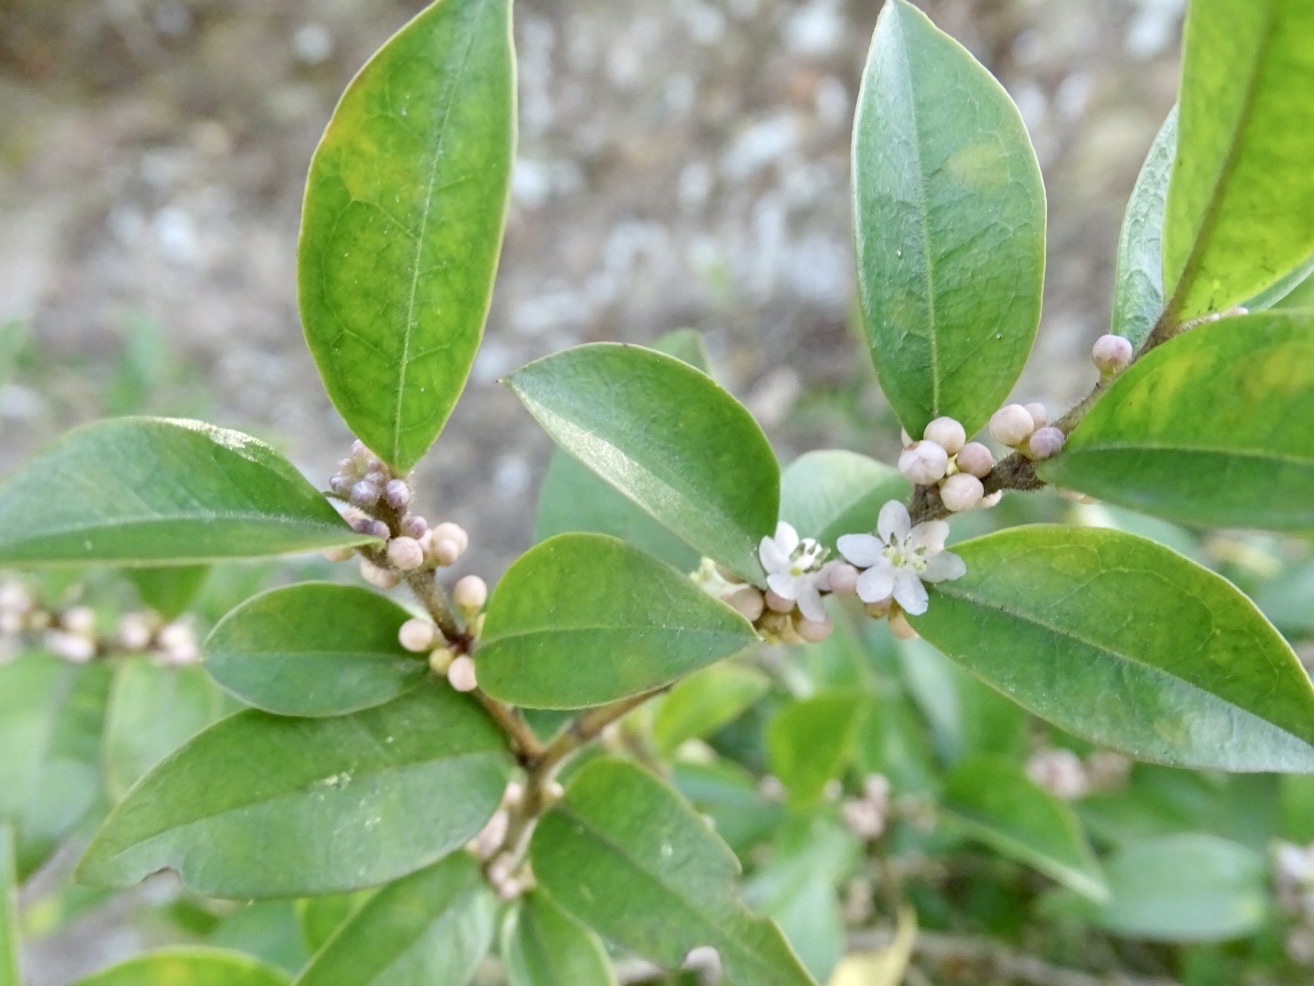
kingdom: Plantae
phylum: Tracheophyta
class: Magnoliopsida
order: Aquifoliales
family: Aquifoliaceae
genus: Ilex
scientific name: Ilex pubescens
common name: Pubescent holly
